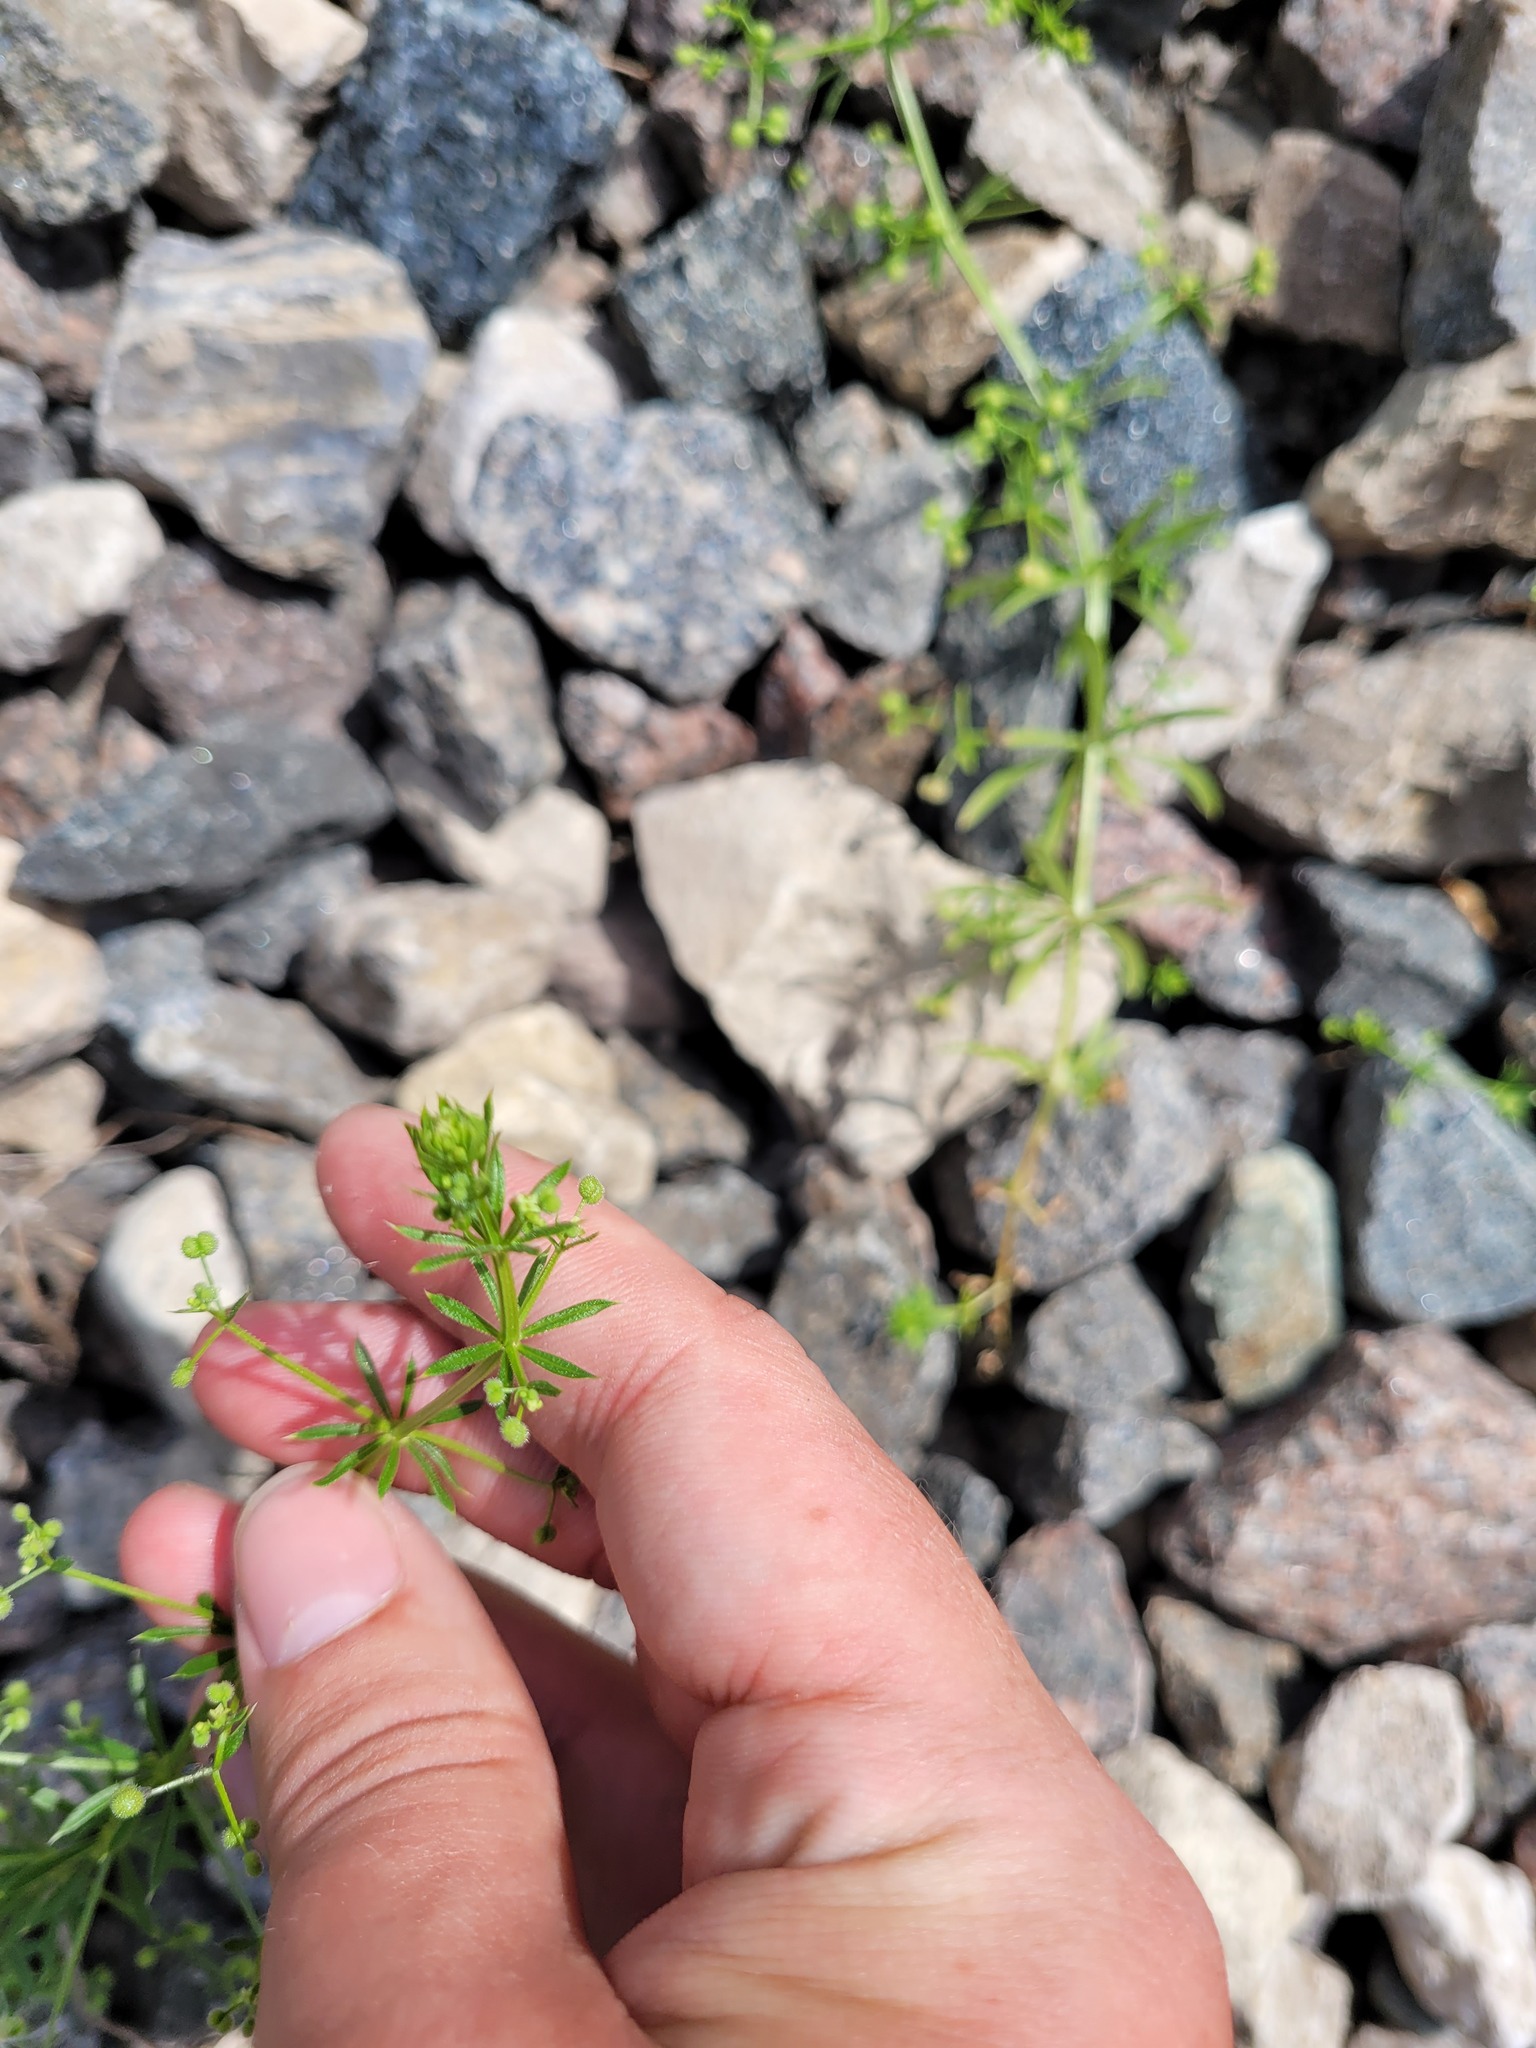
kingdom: Plantae
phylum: Tracheophyta
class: Magnoliopsida
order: Gentianales
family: Rubiaceae
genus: Galium
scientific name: Galium
